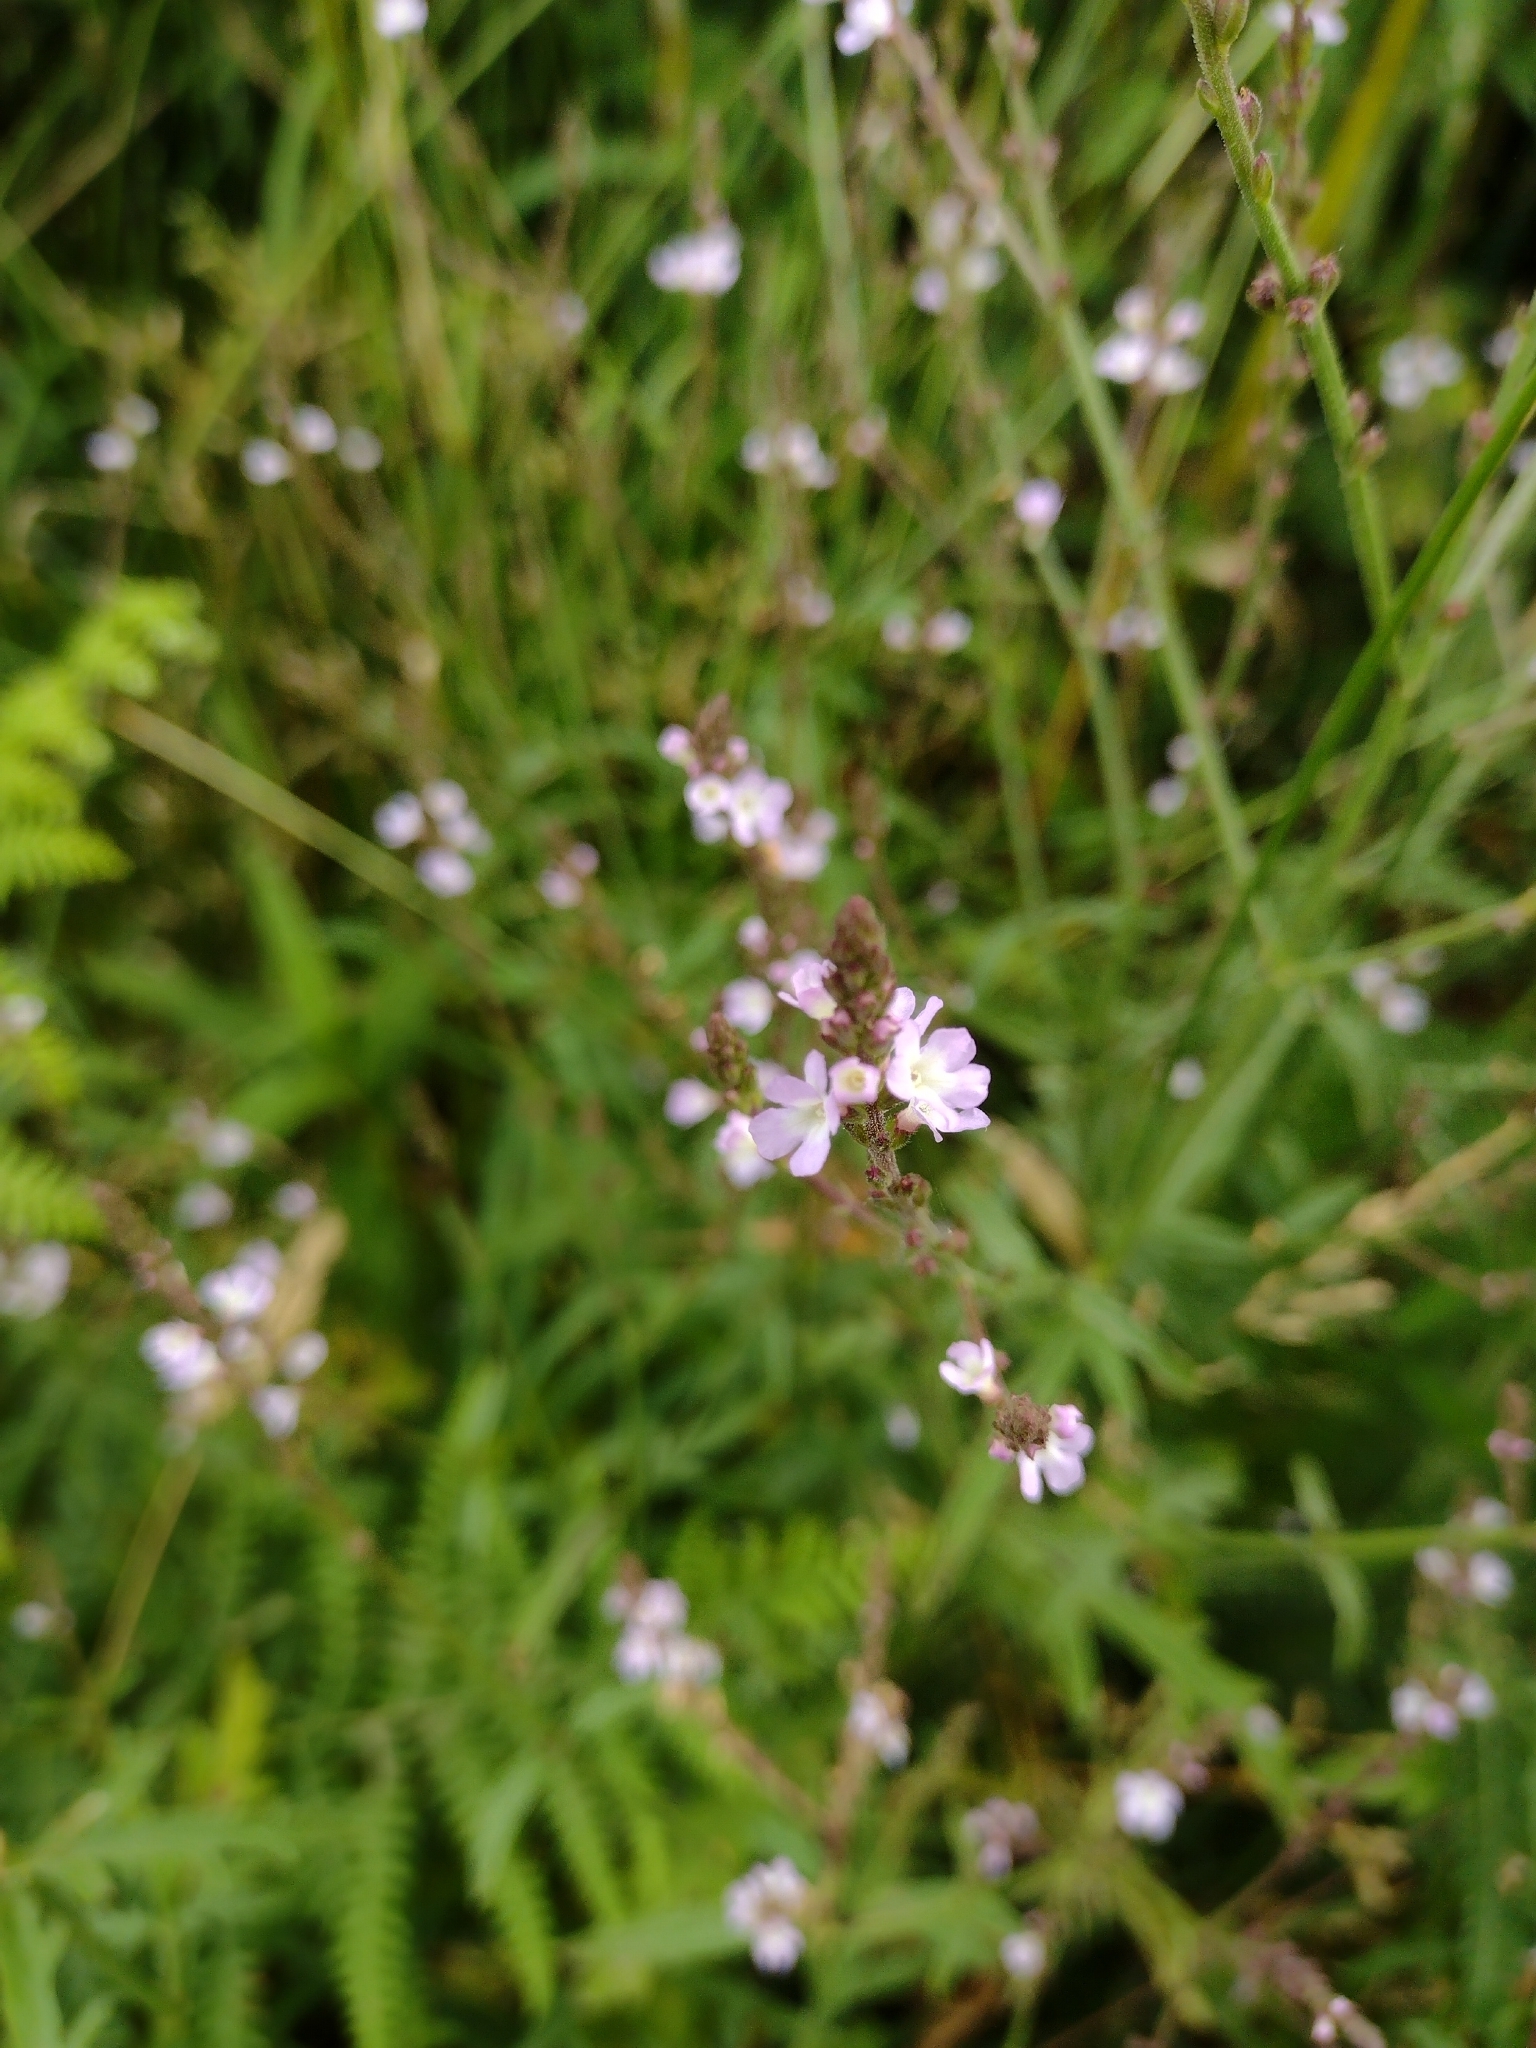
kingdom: Plantae
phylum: Tracheophyta
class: Magnoliopsida
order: Lamiales
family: Verbenaceae
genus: Verbena
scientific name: Verbena officinalis
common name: Vervain
